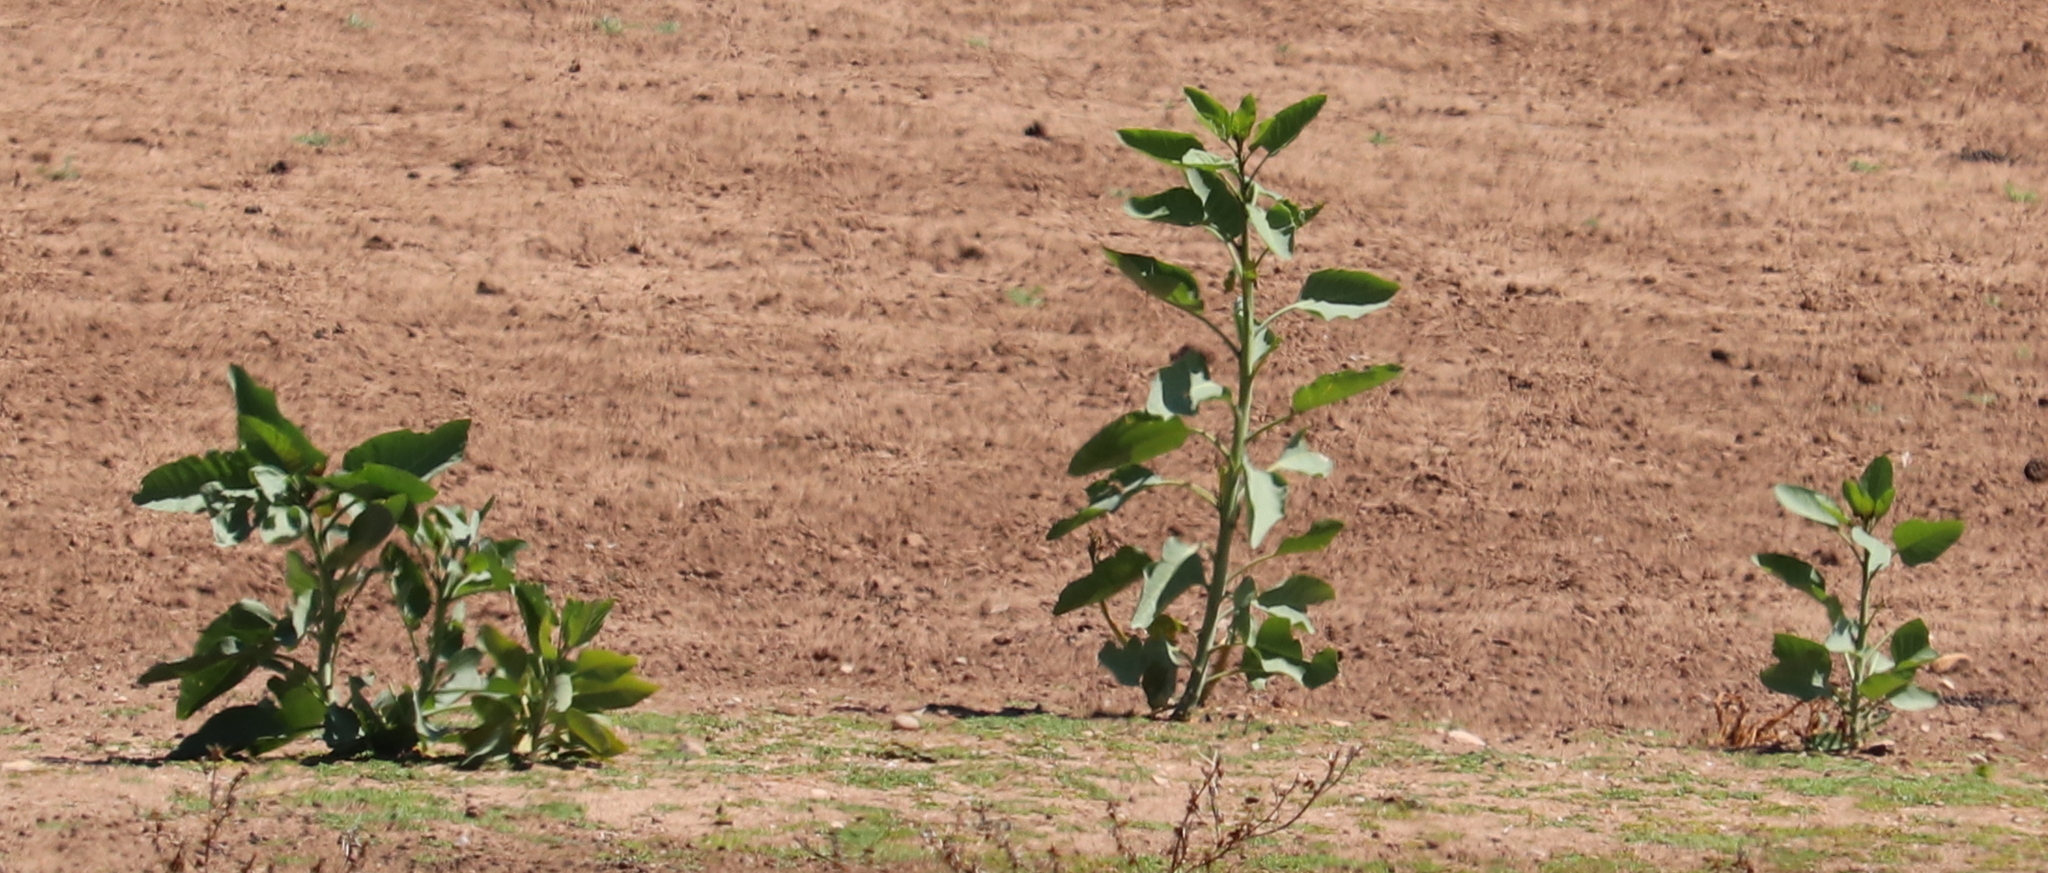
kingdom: Plantae
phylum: Tracheophyta
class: Magnoliopsida
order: Solanales
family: Solanaceae
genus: Nicotiana
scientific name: Nicotiana glauca
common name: Tree tobacco
